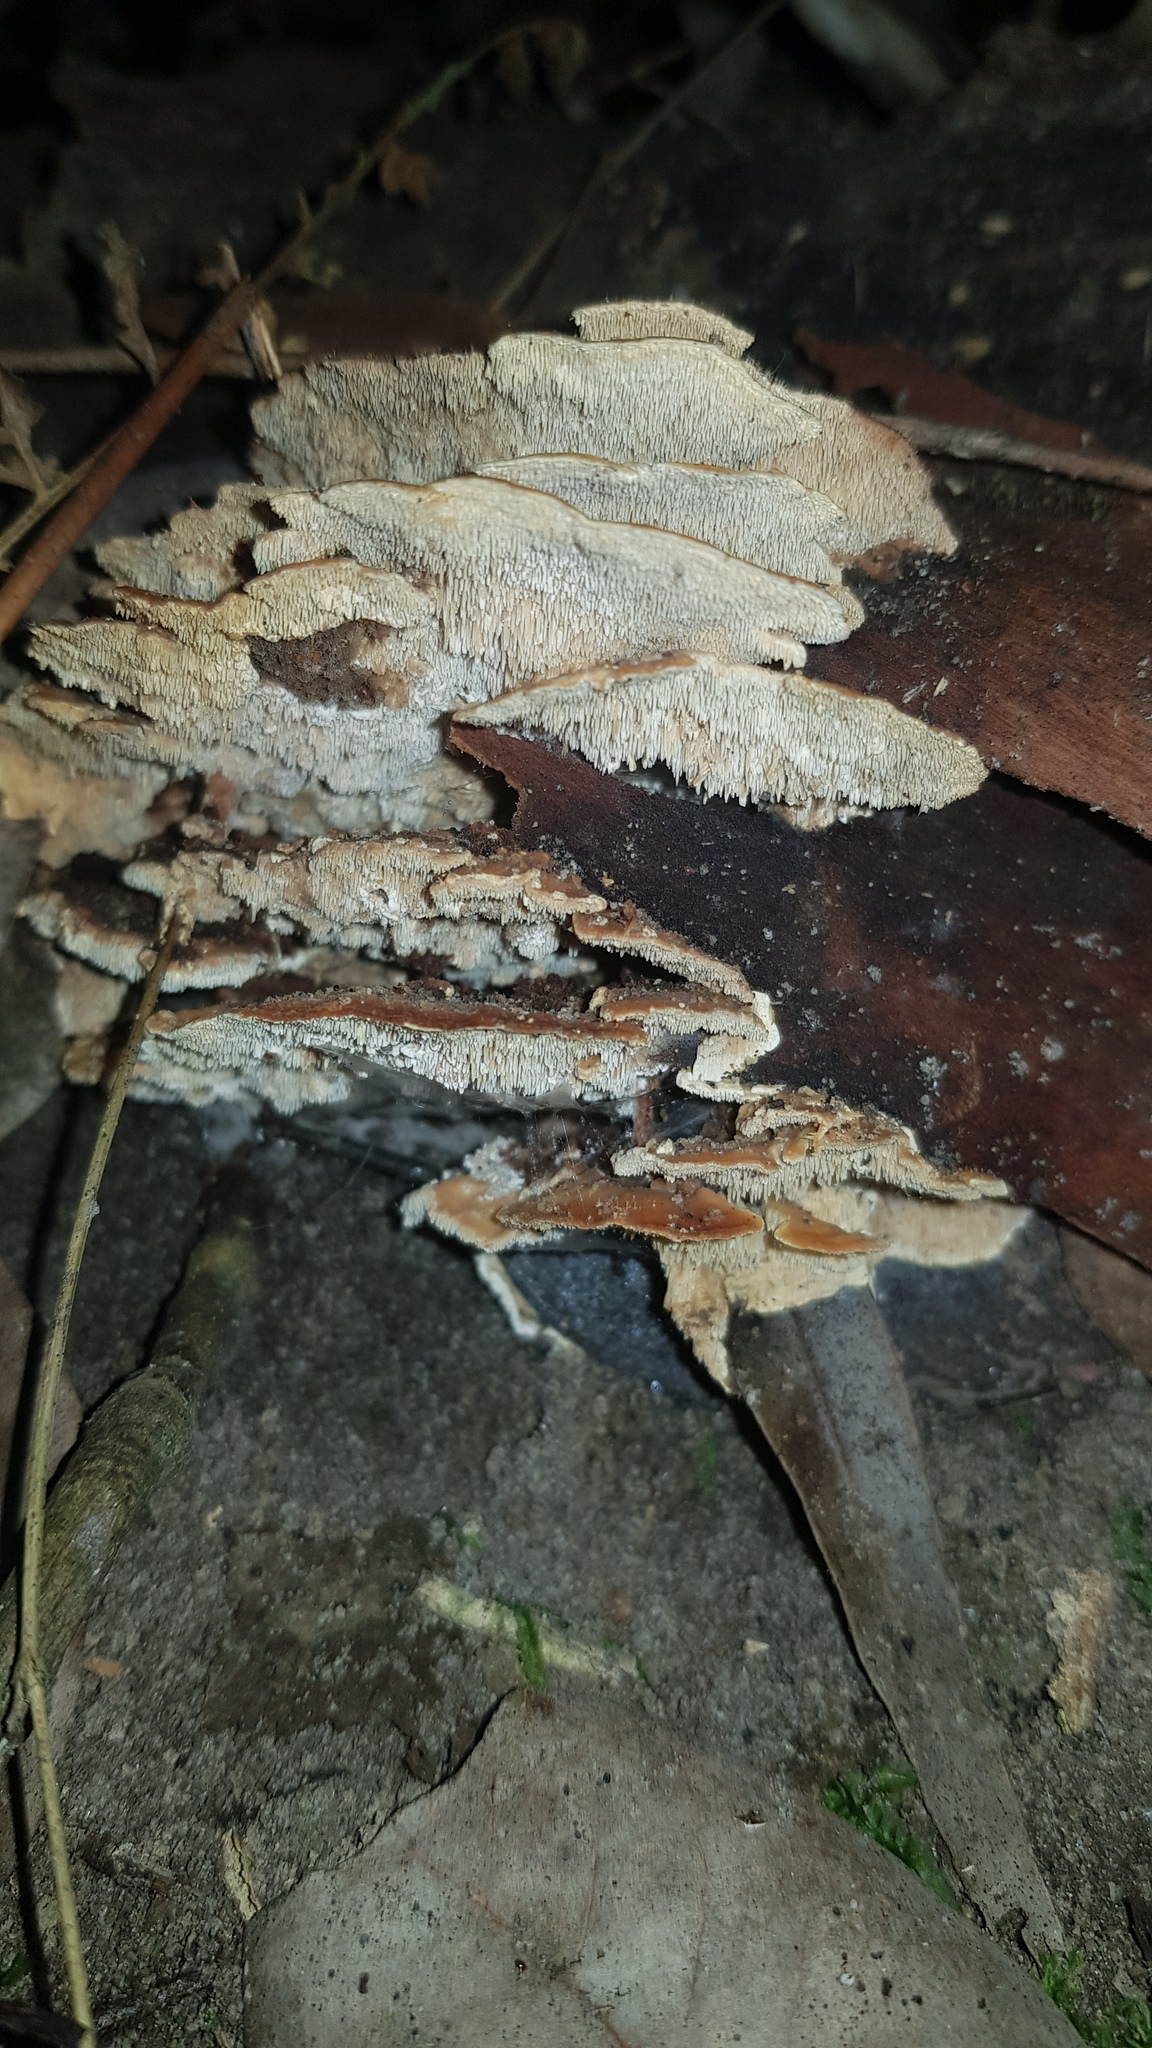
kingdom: Fungi
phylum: Basidiomycota
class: Agaricomycetes
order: Polyporales
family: Cerrenaceae
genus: Cerrena
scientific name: Cerrena zonata
